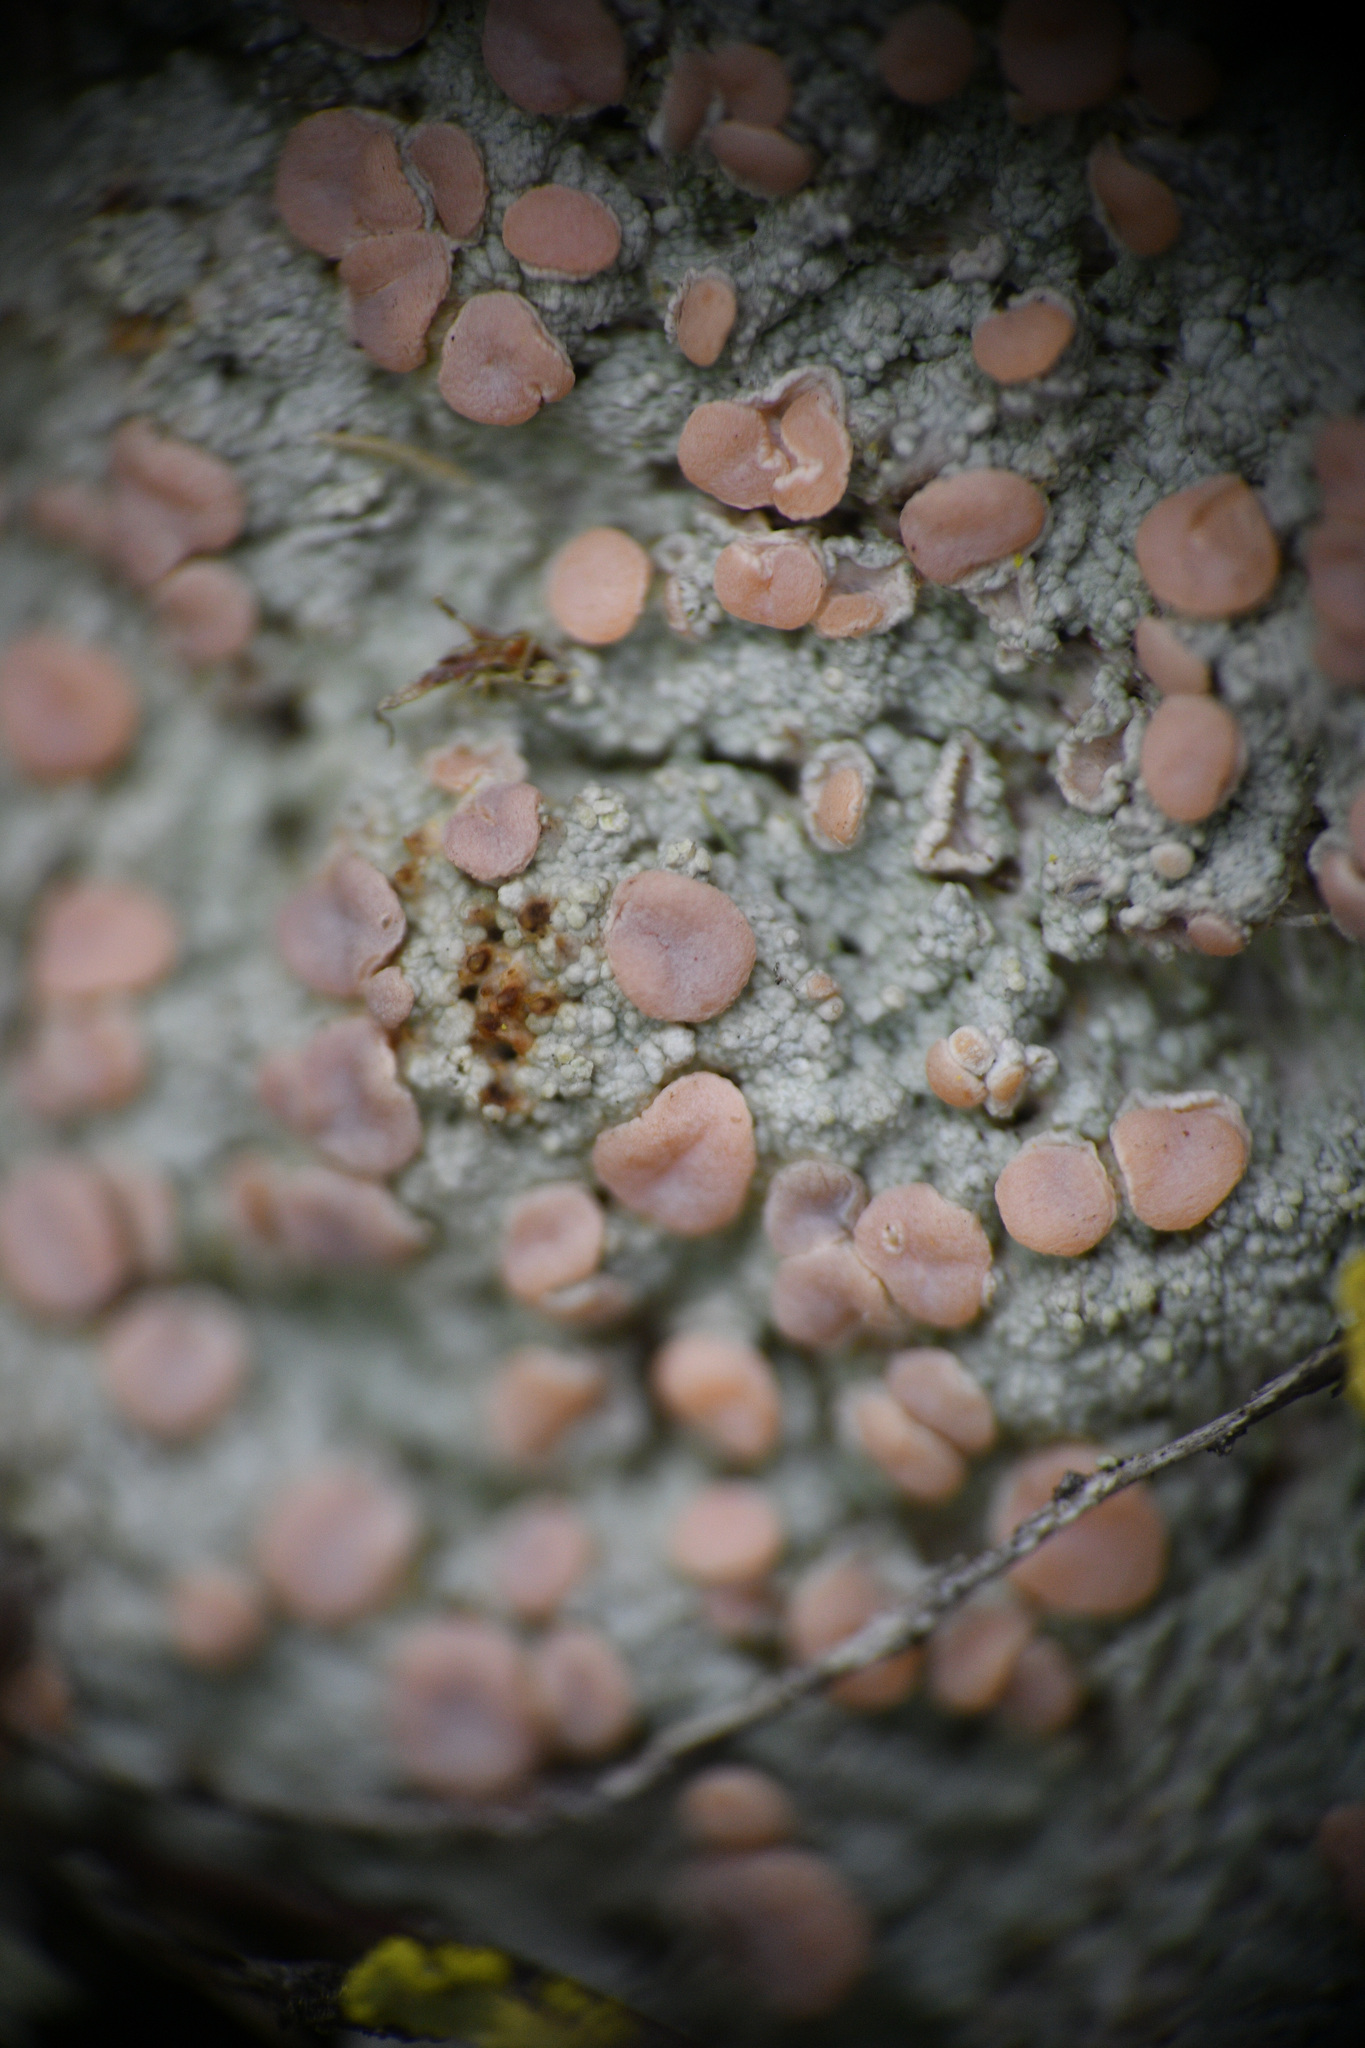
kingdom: Fungi
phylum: Ascomycota
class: Lecanoromycetes
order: Pertusariales
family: Icmadophilaceae
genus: Icmadophila
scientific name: Icmadophila ericetorum
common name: Candy lichen
